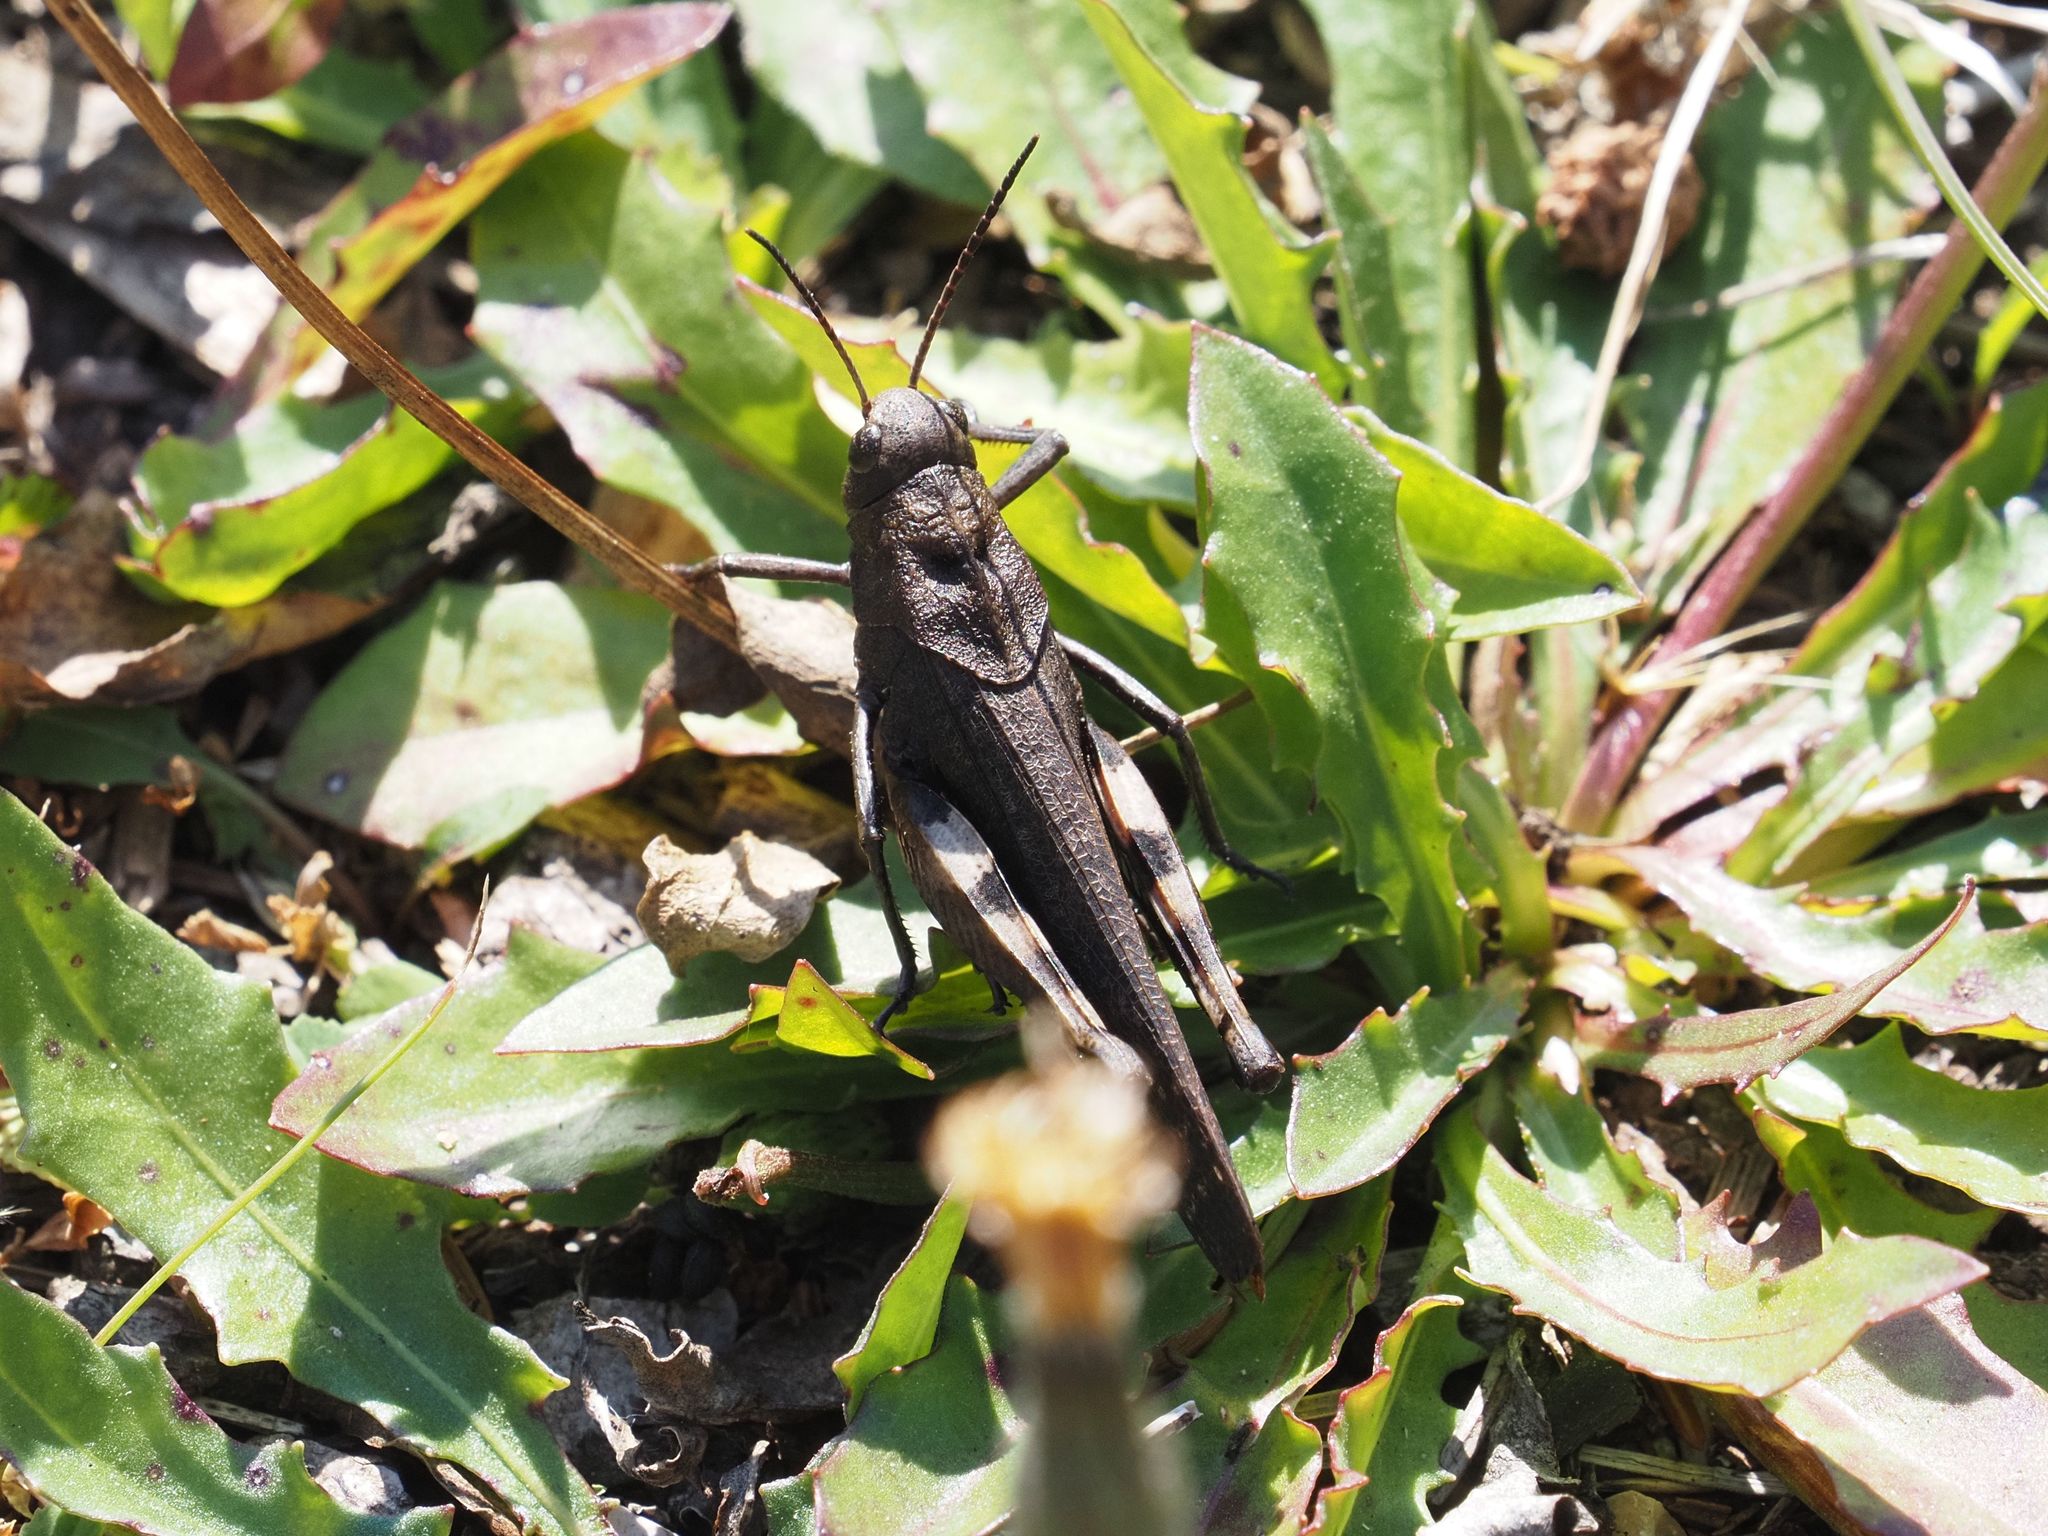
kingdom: Animalia
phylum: Arthropoda
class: Insecta
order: Orthoptera
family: Acrididae
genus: Psophus
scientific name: Psophus stridulus
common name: Rattle grasshopper
